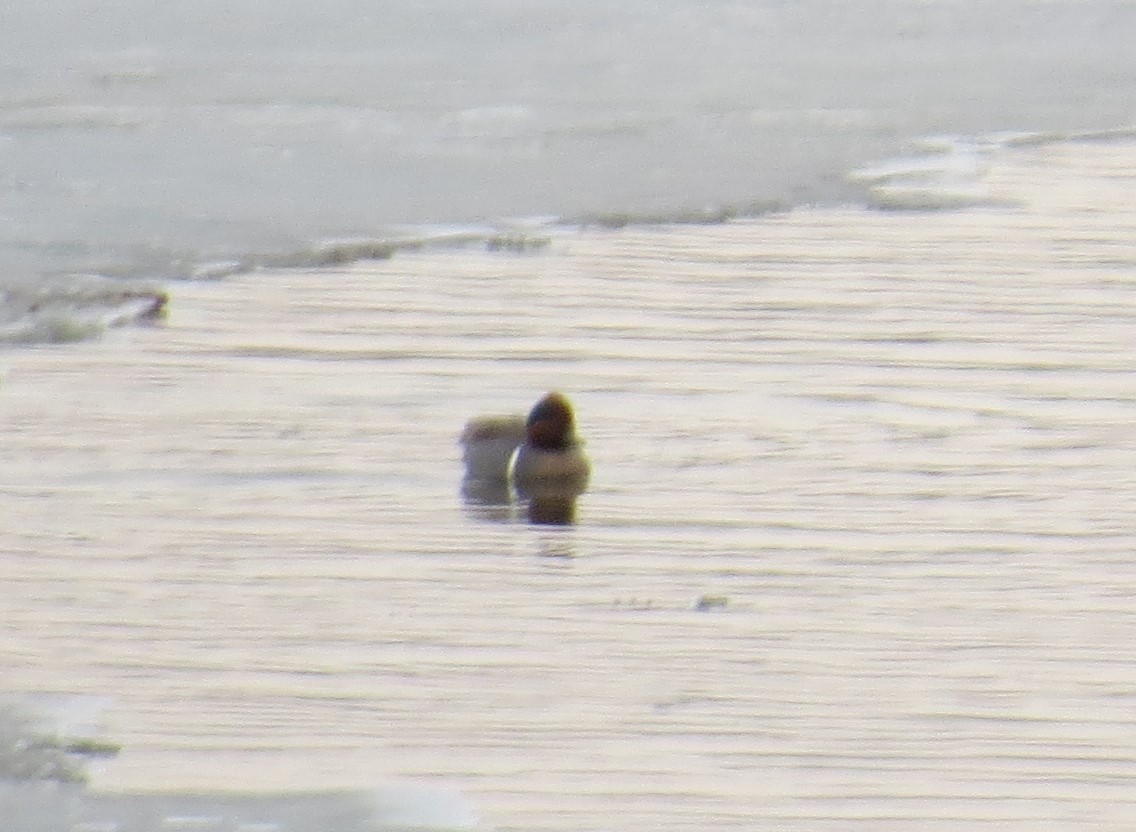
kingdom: Animalia
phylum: Chordata
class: Aves
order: Anseriformes
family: Anatidae
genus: Anas
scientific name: Anas crecca
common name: Eurasian teal
